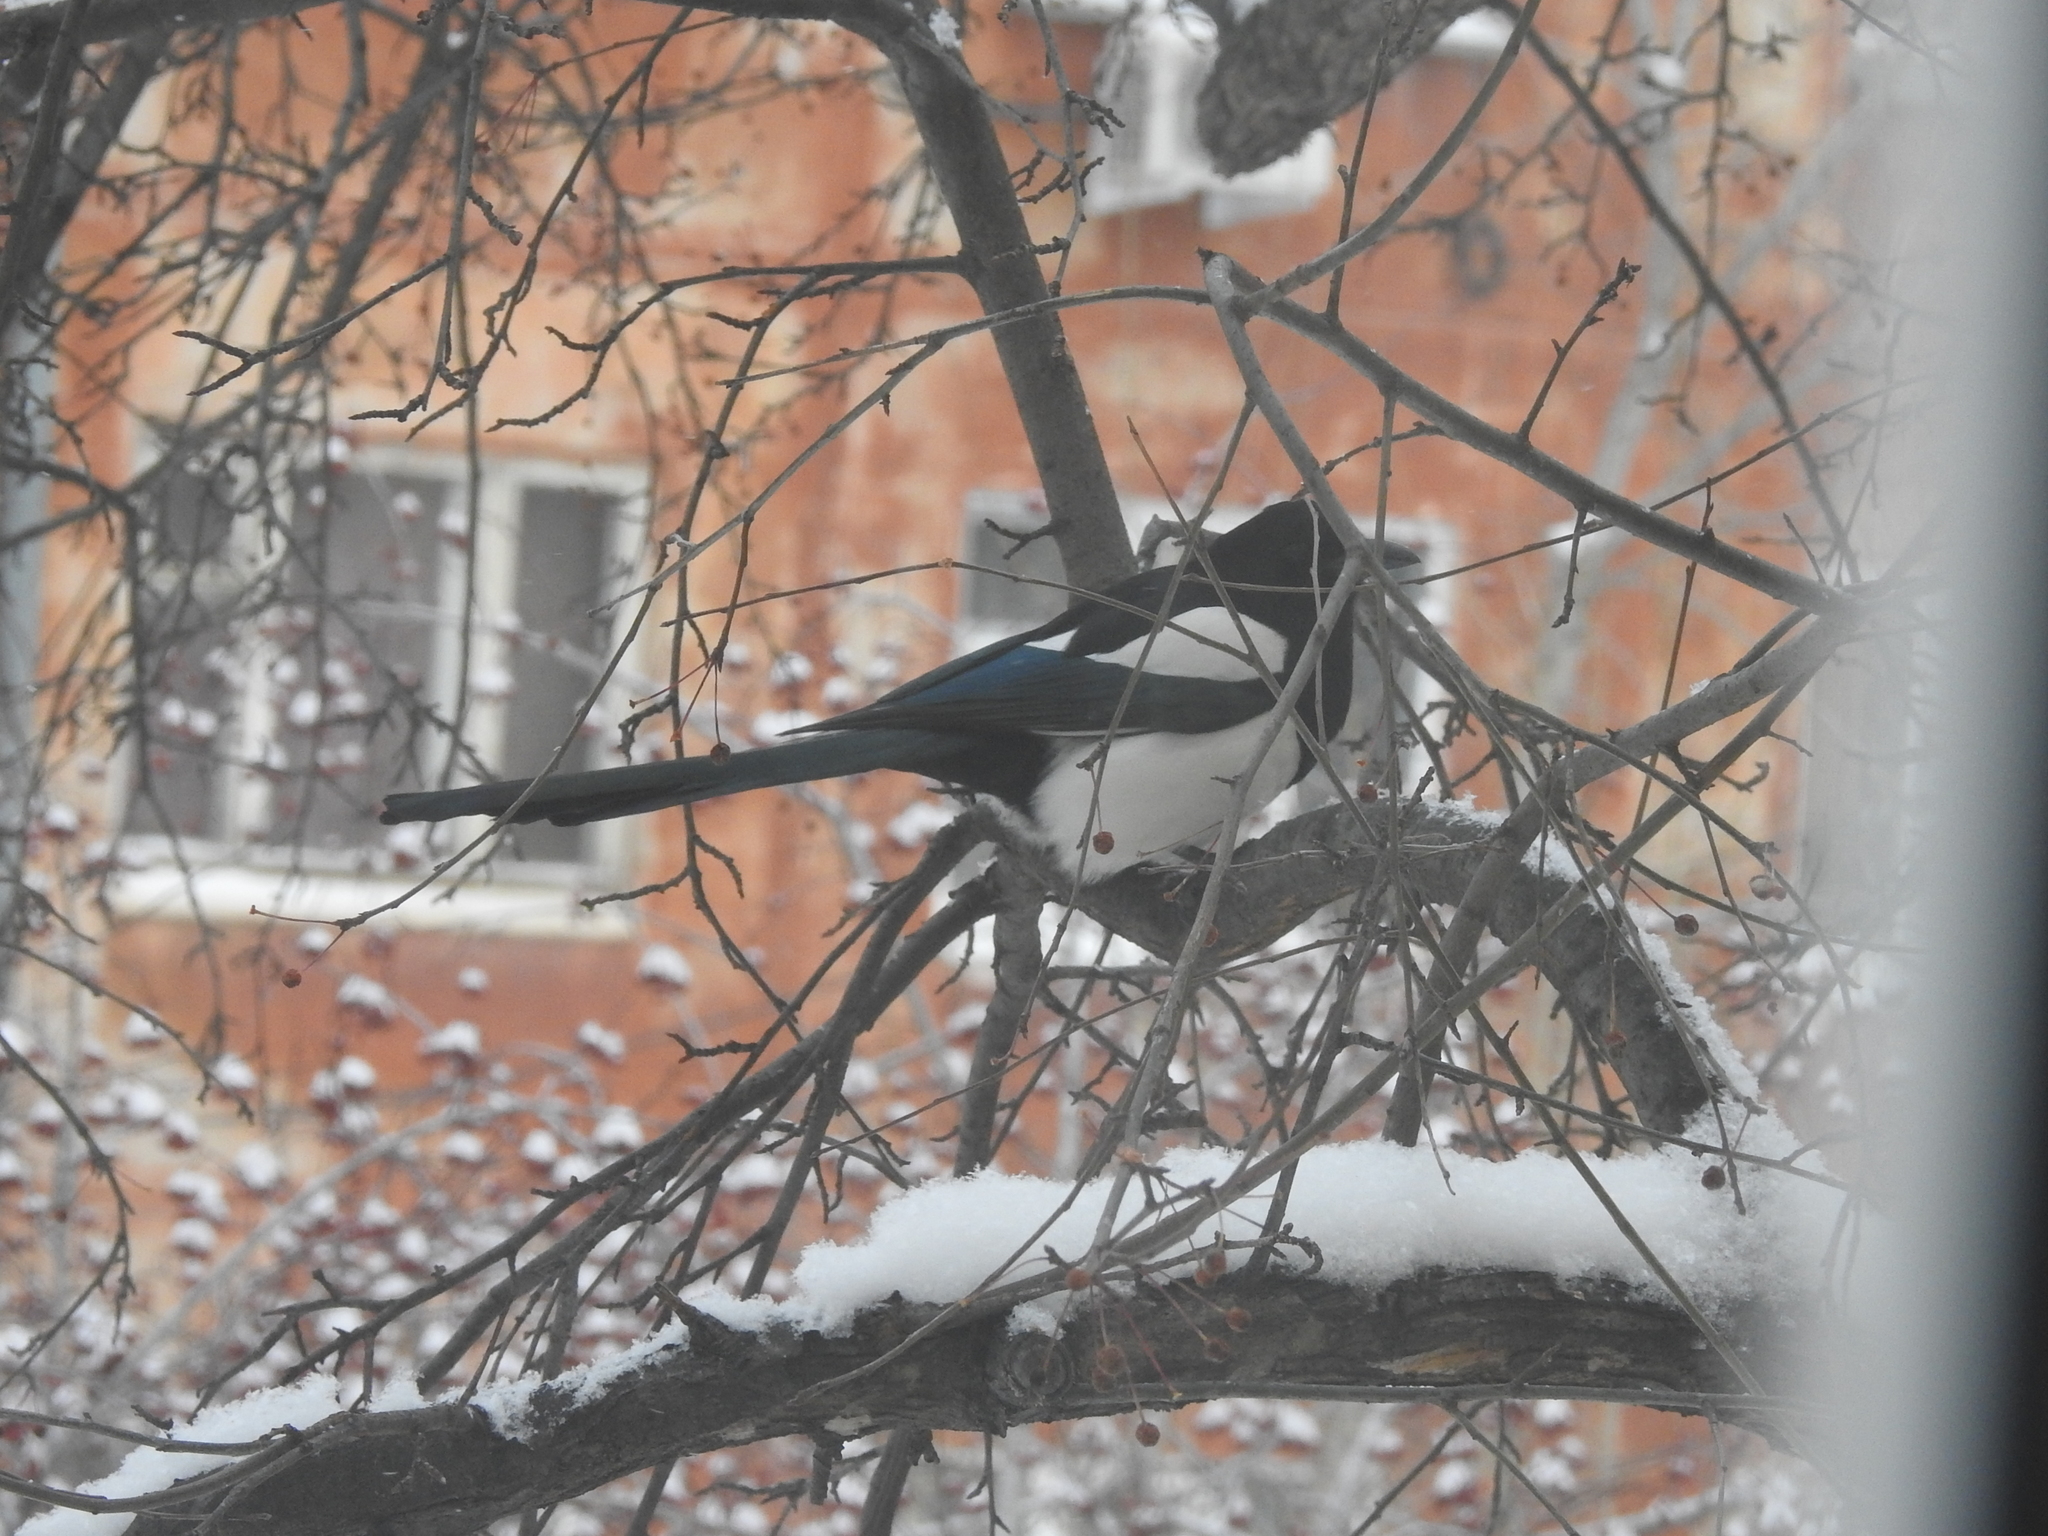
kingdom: Animalia
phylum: Chordata
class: Aves
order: Passeriformes
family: Corvidae
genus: Pica
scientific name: Pica pica
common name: Eurasian magpie
